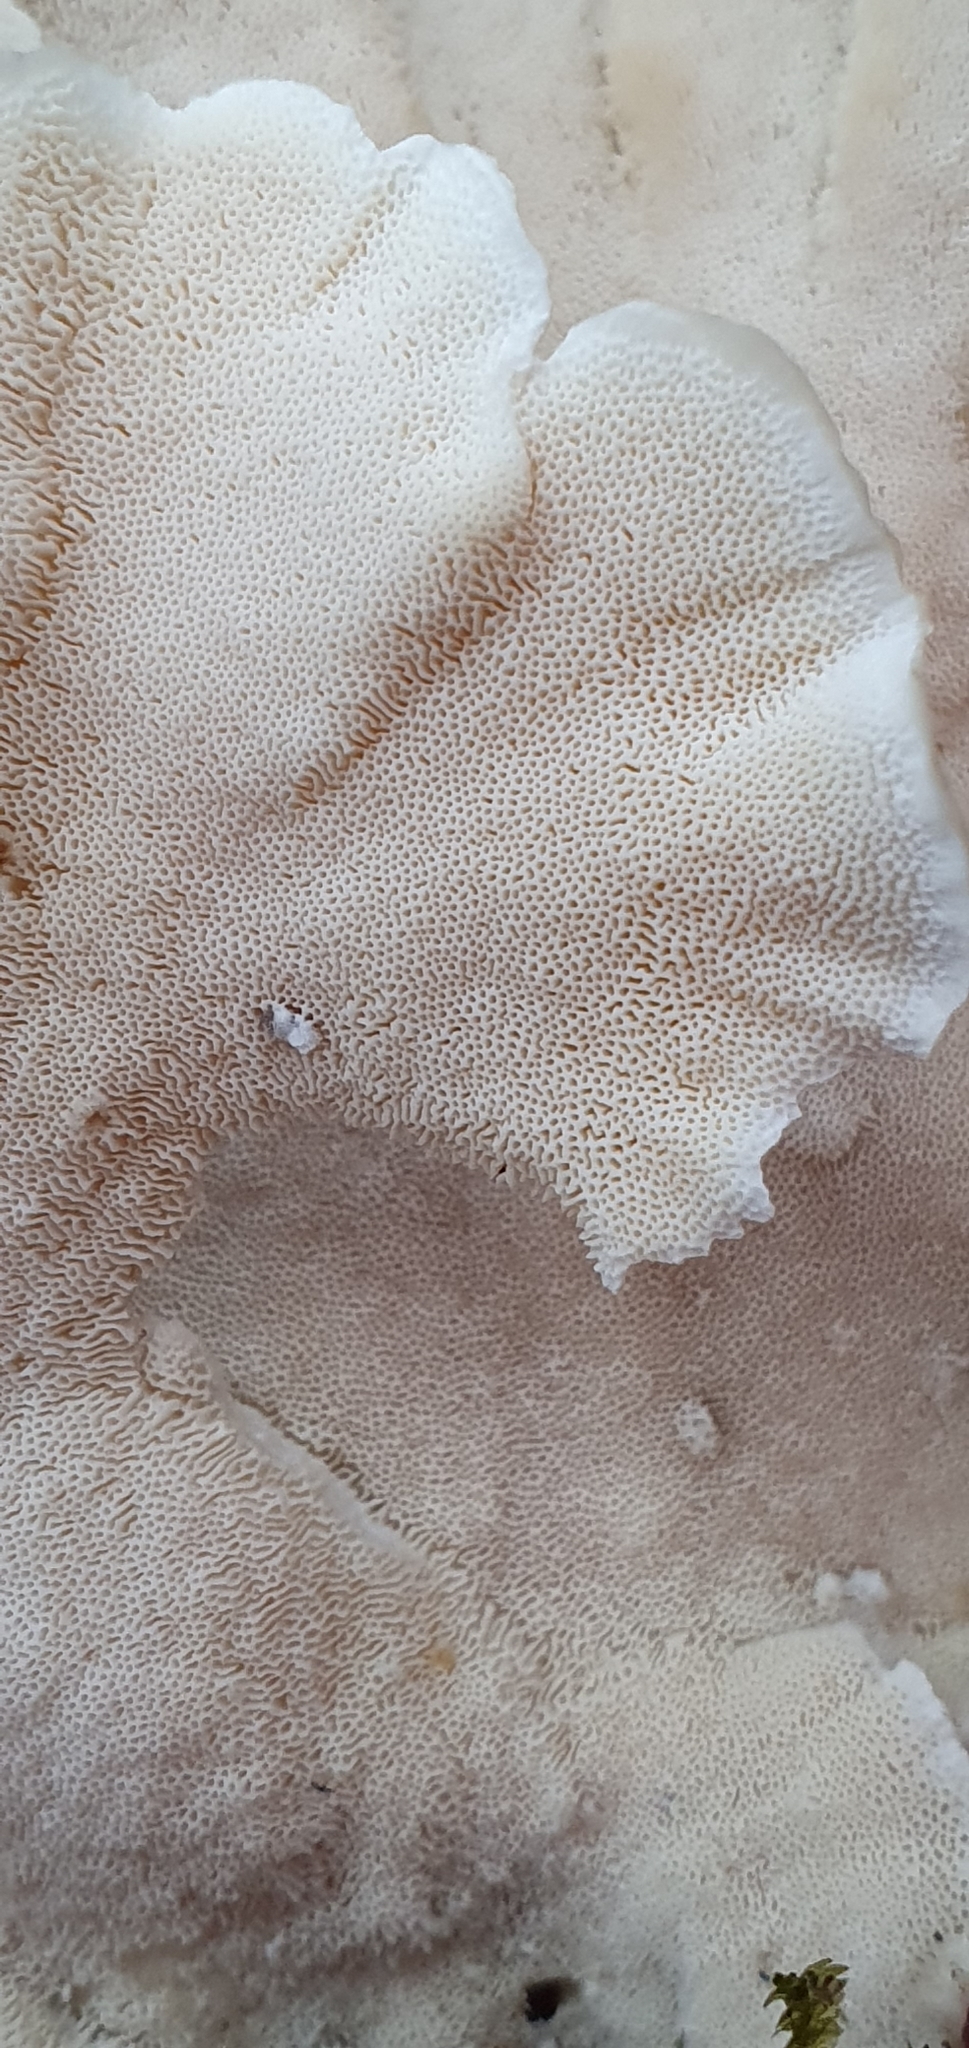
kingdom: Fungi
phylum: Basidiomycota
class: Agaricomycetes
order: Polyporales
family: Polyporaceae
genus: Trametes
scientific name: Trametes versicolor
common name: Turkeytail
